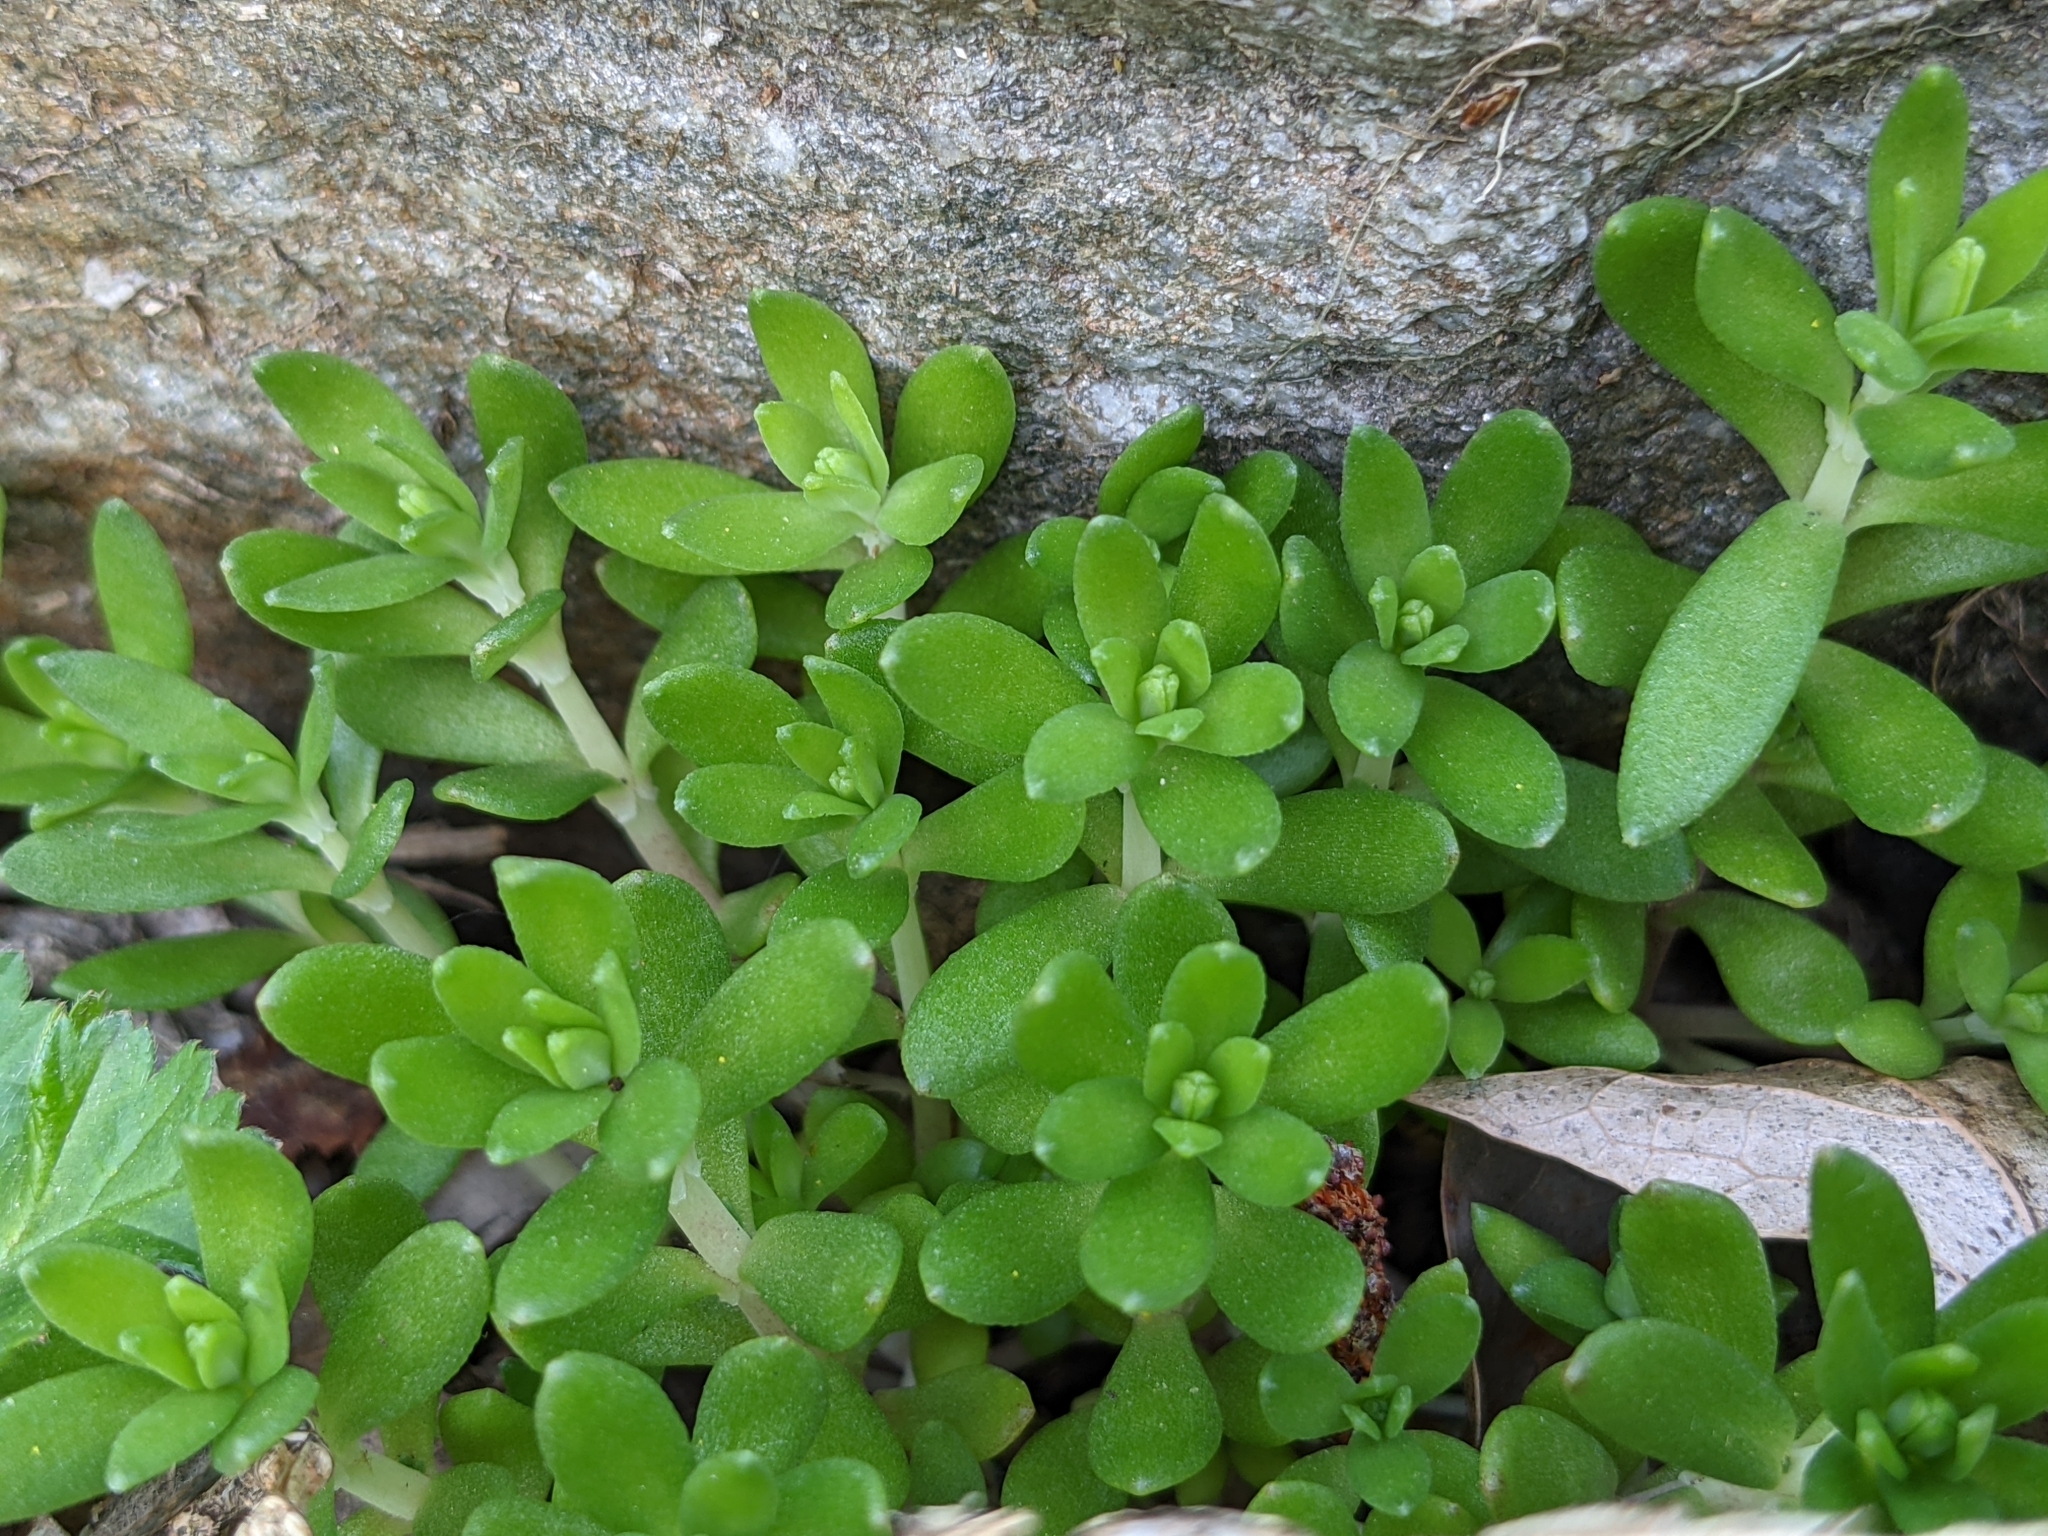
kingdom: Plantae
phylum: Tracheophyta
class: Magnoliopsida
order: Saxifragales
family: Crassulaceae
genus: Sedum
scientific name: Sedum sarmentosum
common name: Stringy stonecrop
